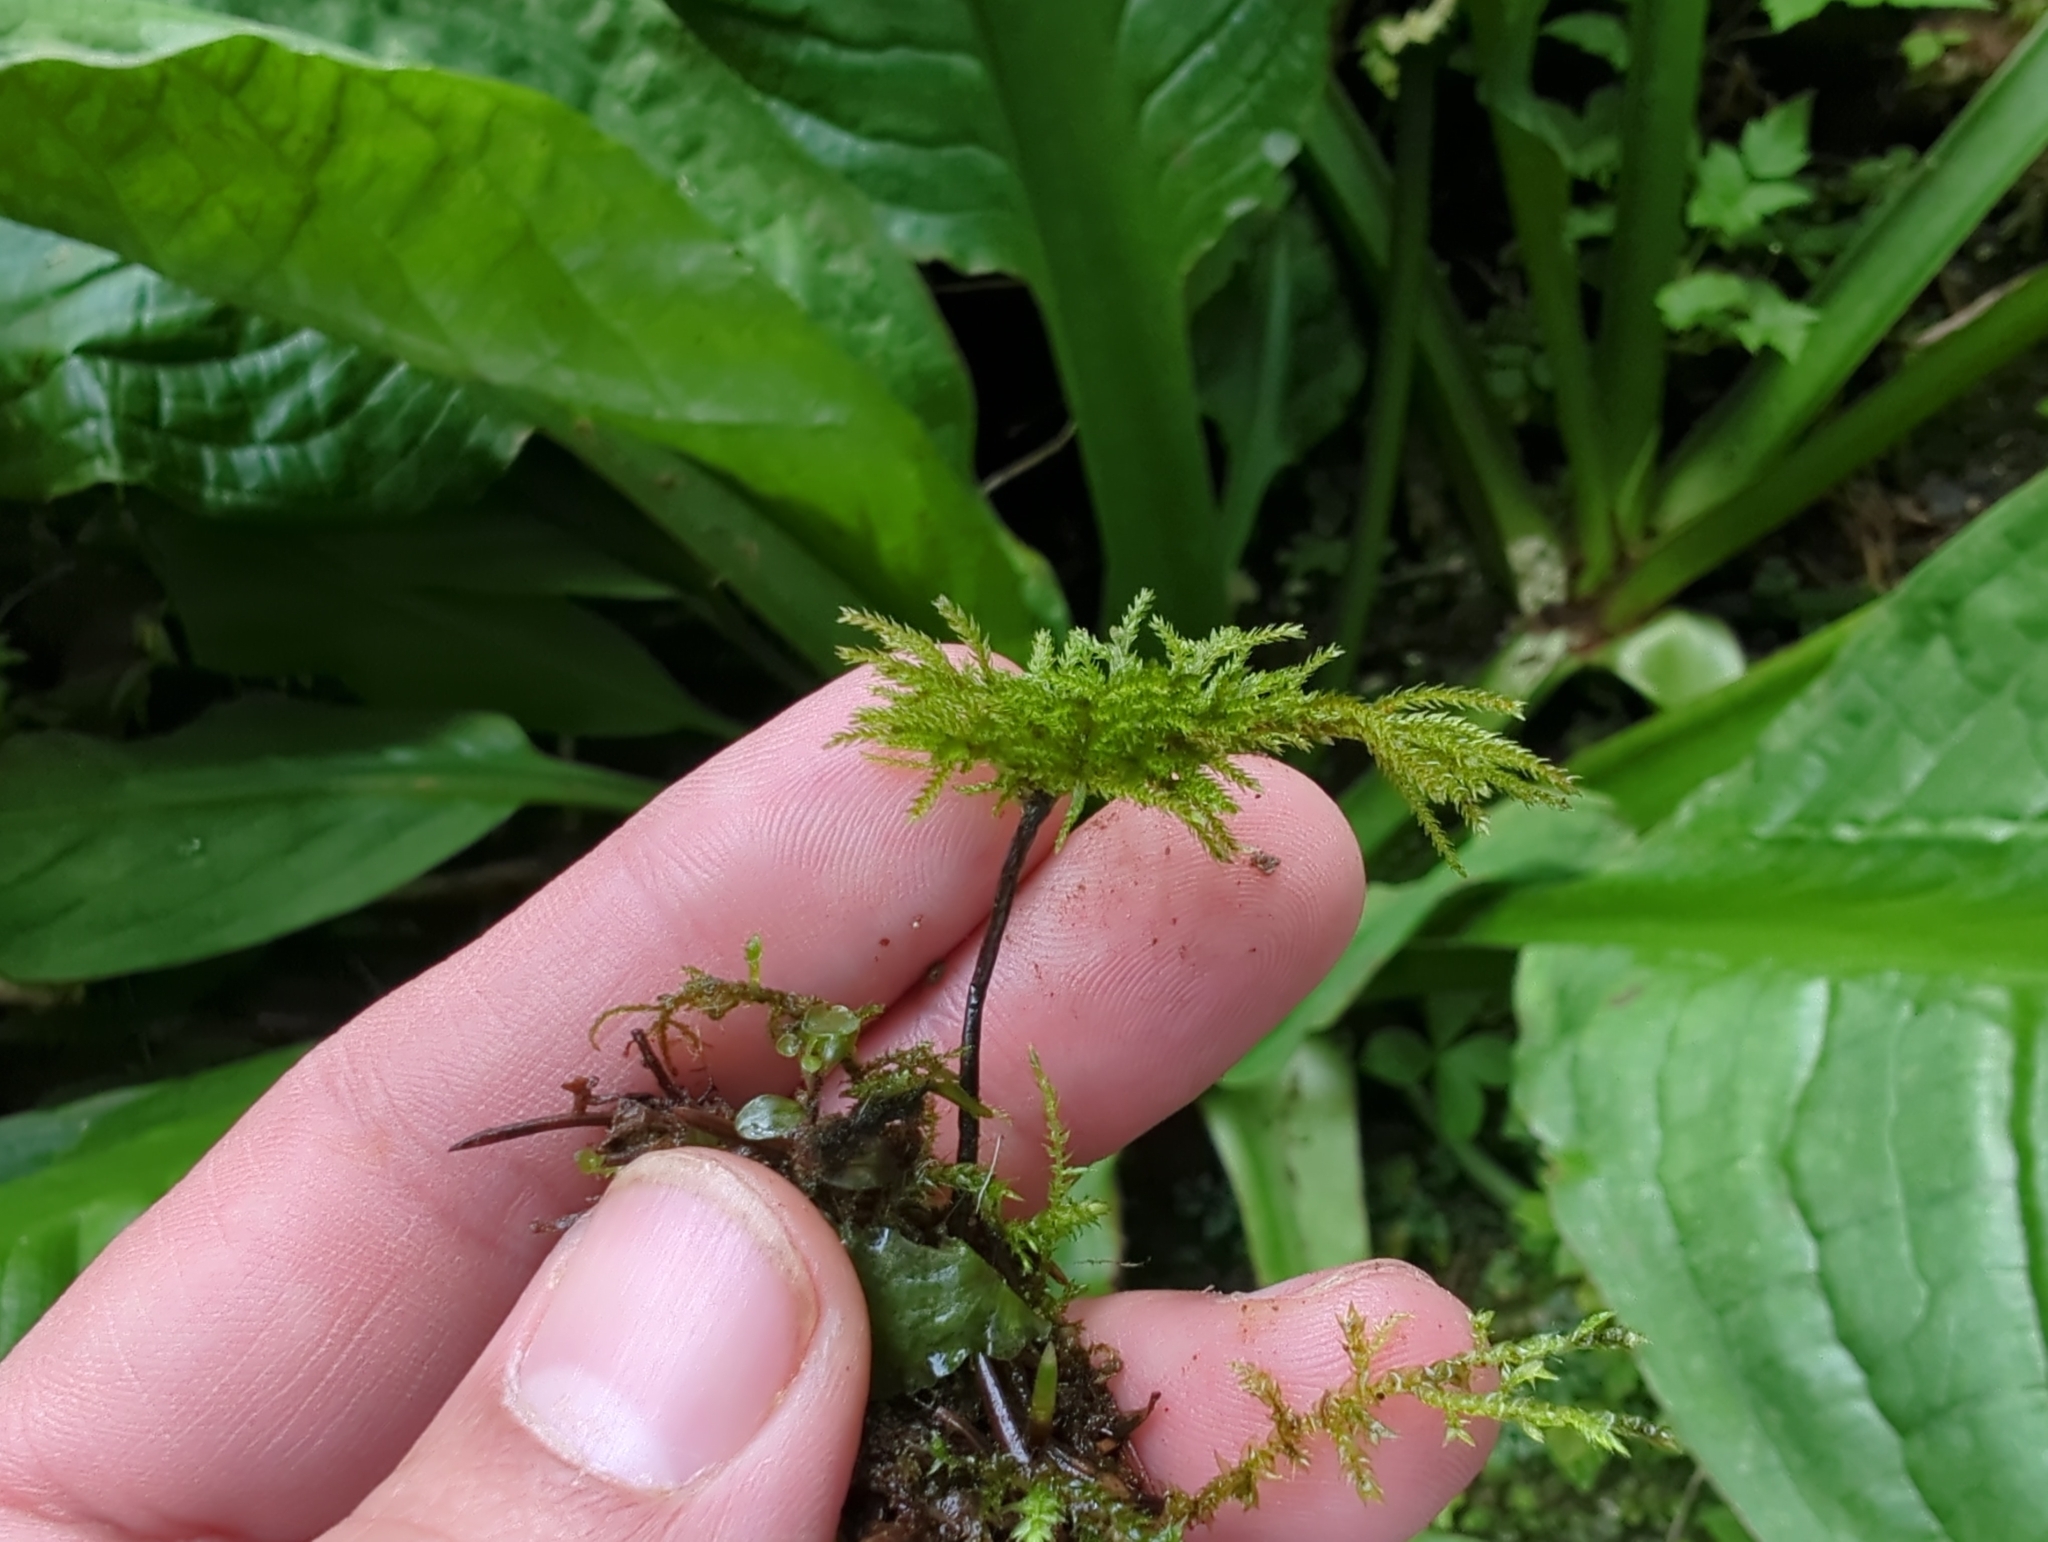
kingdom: Plantae
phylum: Bryophyta
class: Bryopsida
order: Bryales
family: Mniaceae
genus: Leucolepis
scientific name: Leucolepis acanthoneura
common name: Leucolepis umbrella moss
